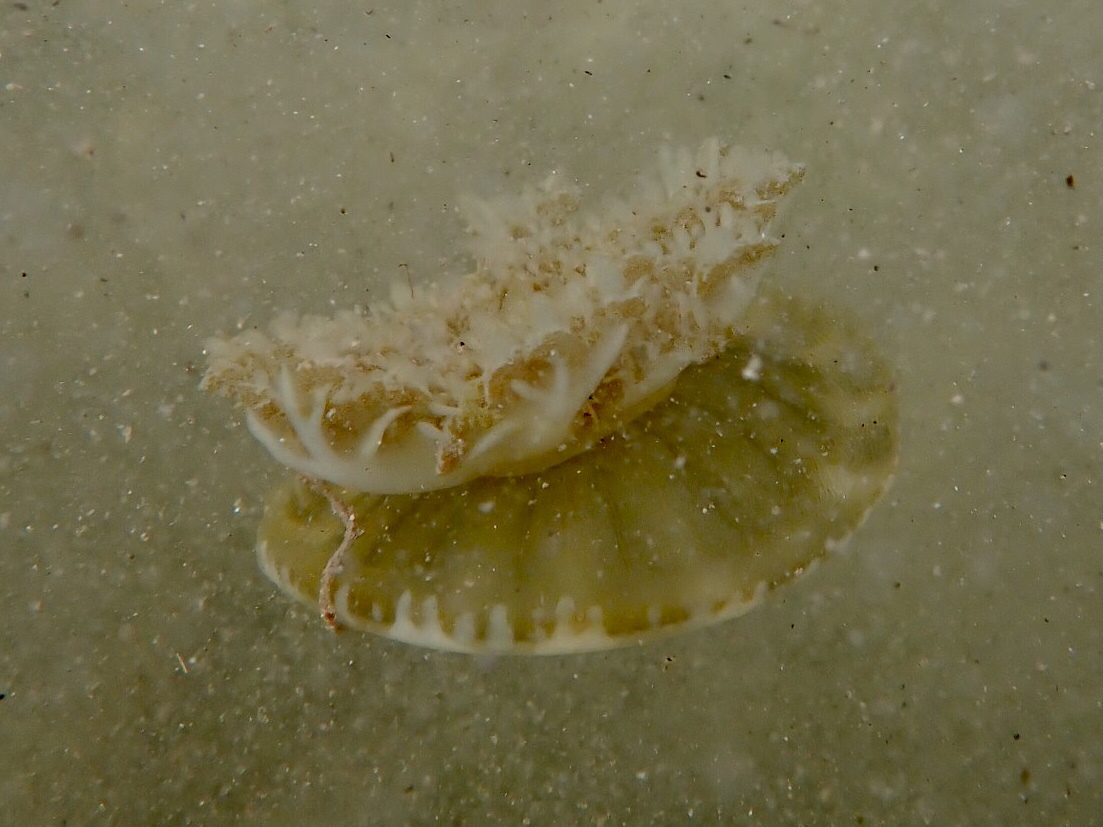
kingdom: Animalia
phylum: Cnidaria
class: Scyphozoa
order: Rhizostomeae
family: Cassiopeidae
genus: Cassiopea
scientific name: Cassiopea andromeda
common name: Upside-down jellyfish
